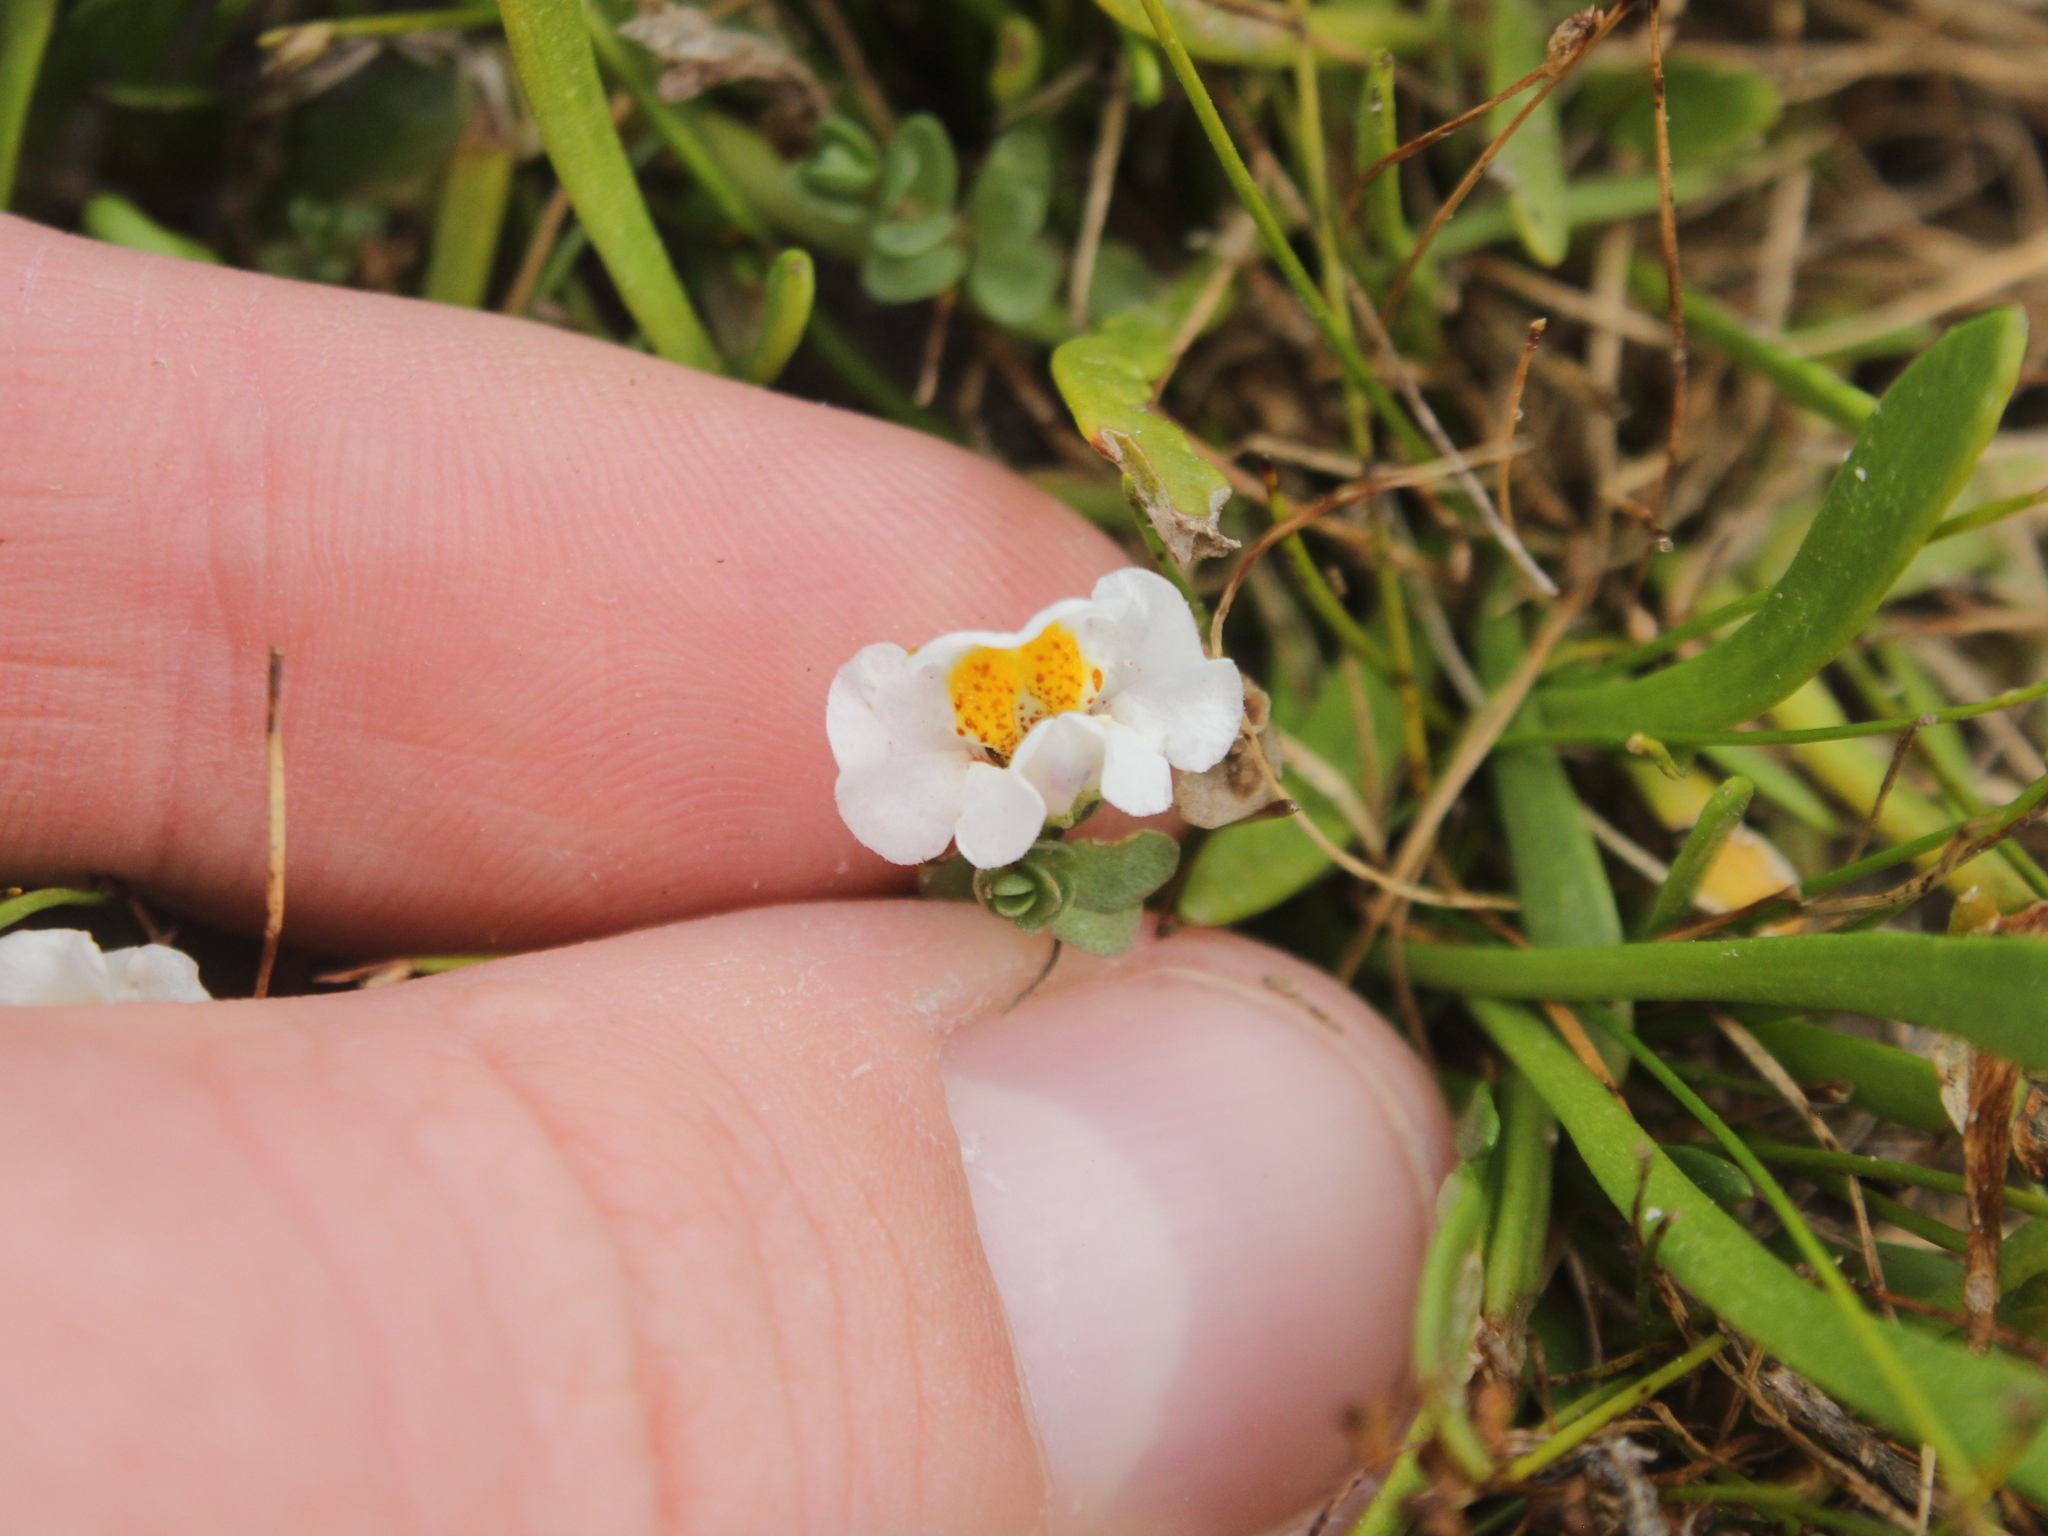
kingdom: Plantae
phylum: Tracheophyta
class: Magnoliopsida
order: Lamiales
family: Phrymaceae
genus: Thyridia
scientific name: Thyridia repens
